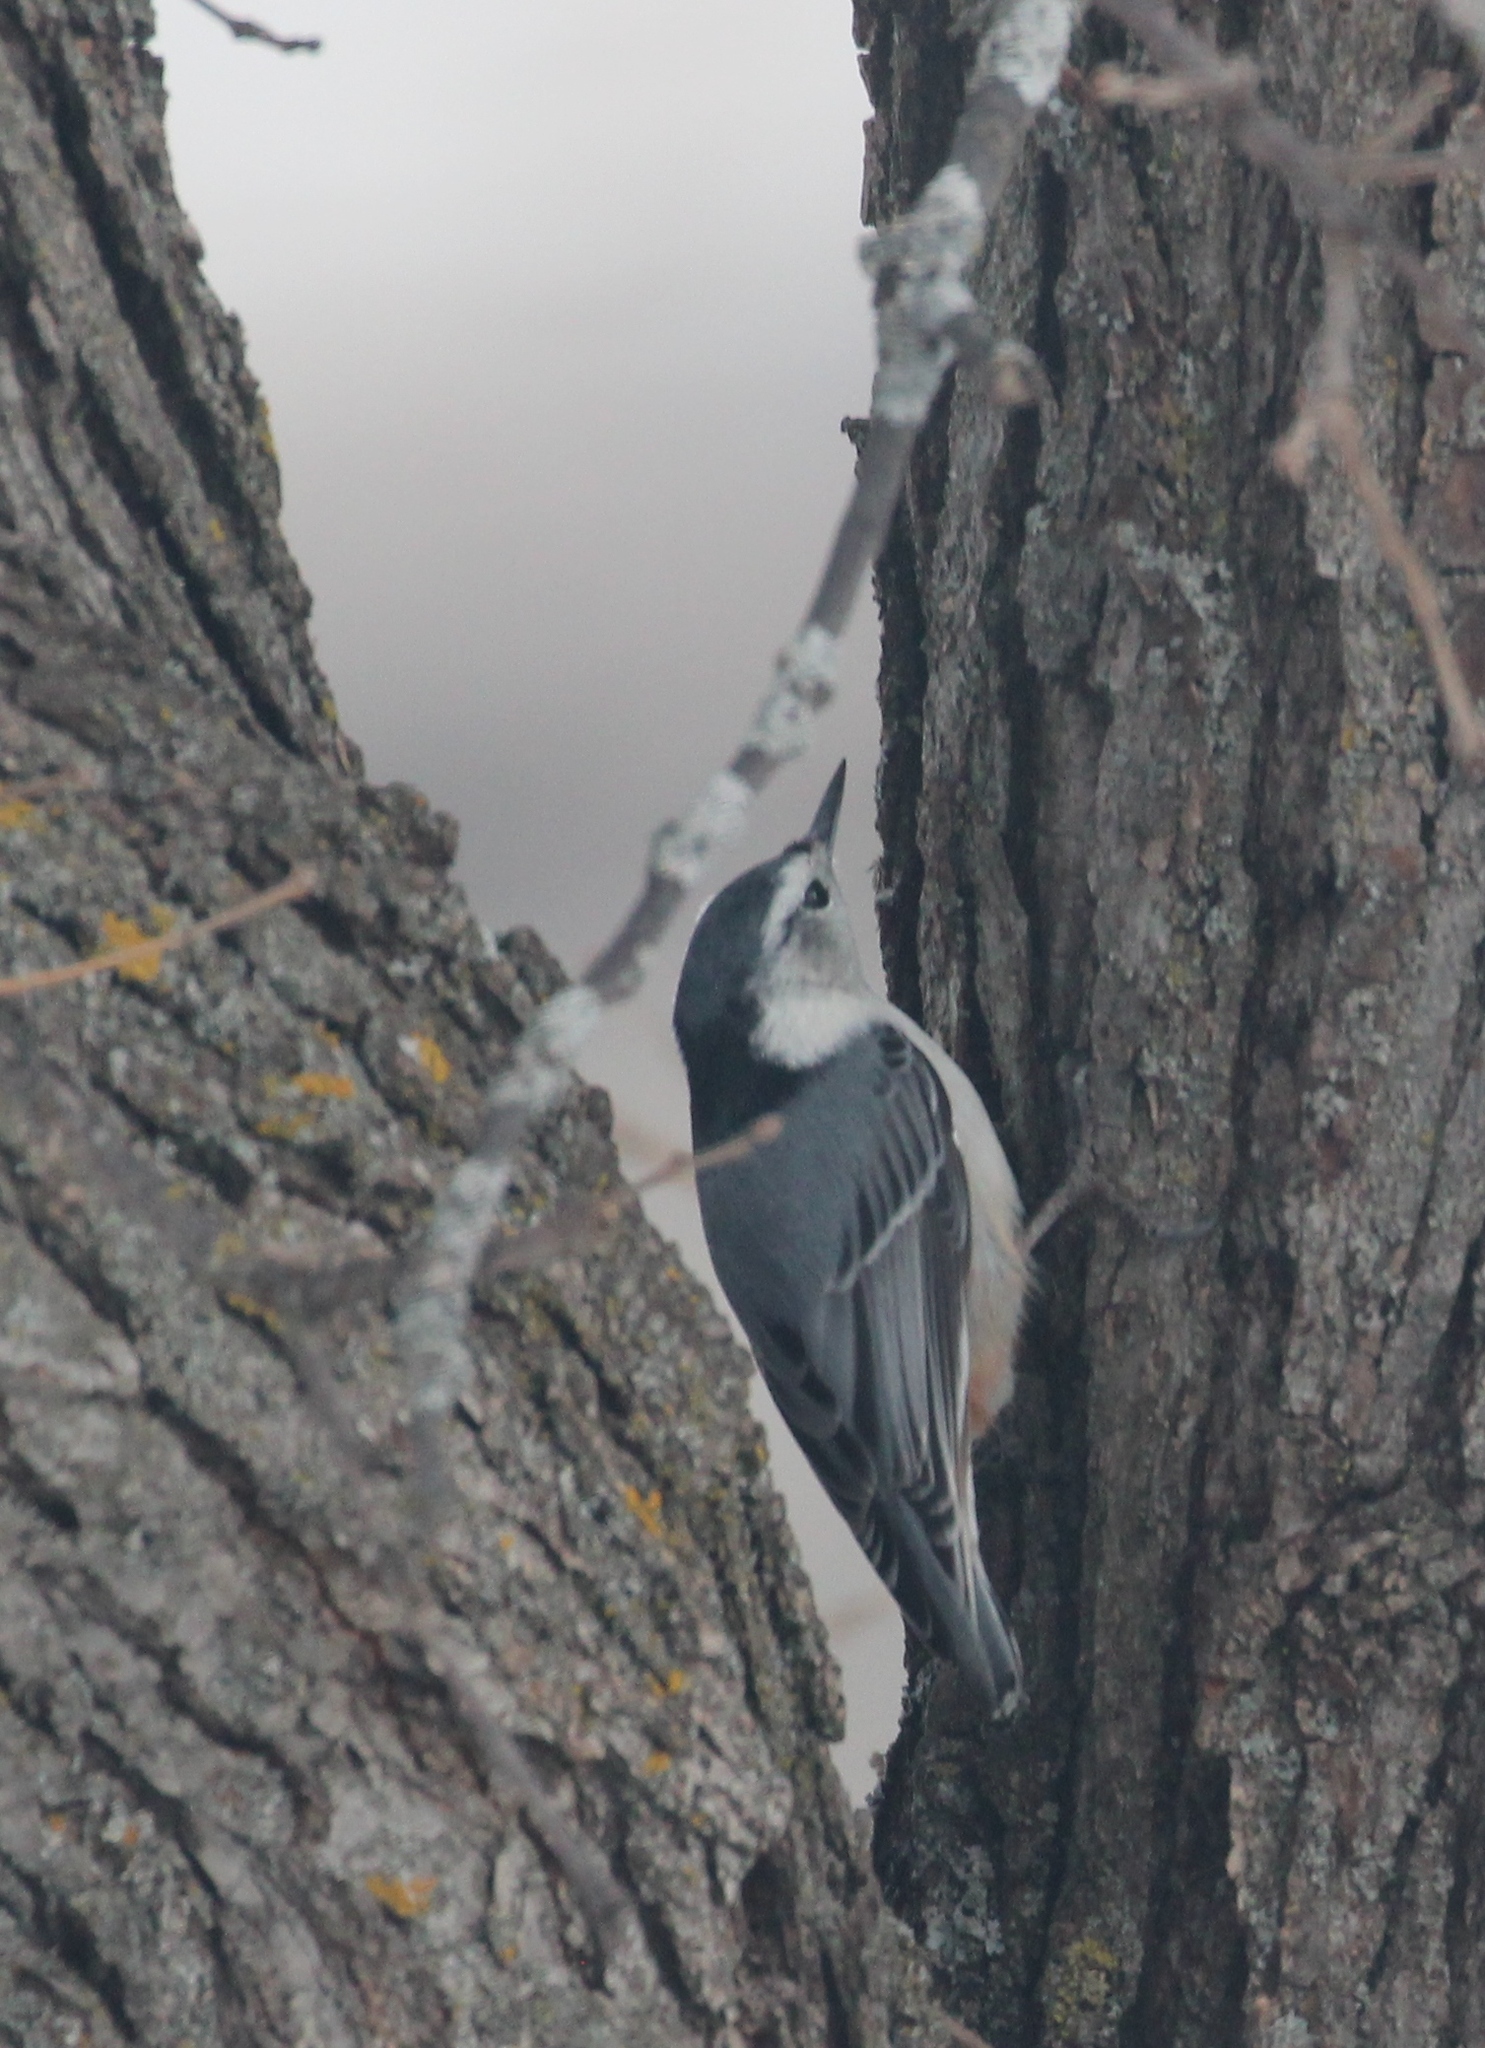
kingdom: Animalia
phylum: Chordata
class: Aves
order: Passeriformes
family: Sittidae
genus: Sitta
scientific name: Sitta carolinensis
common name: White-breasted nuthatch
